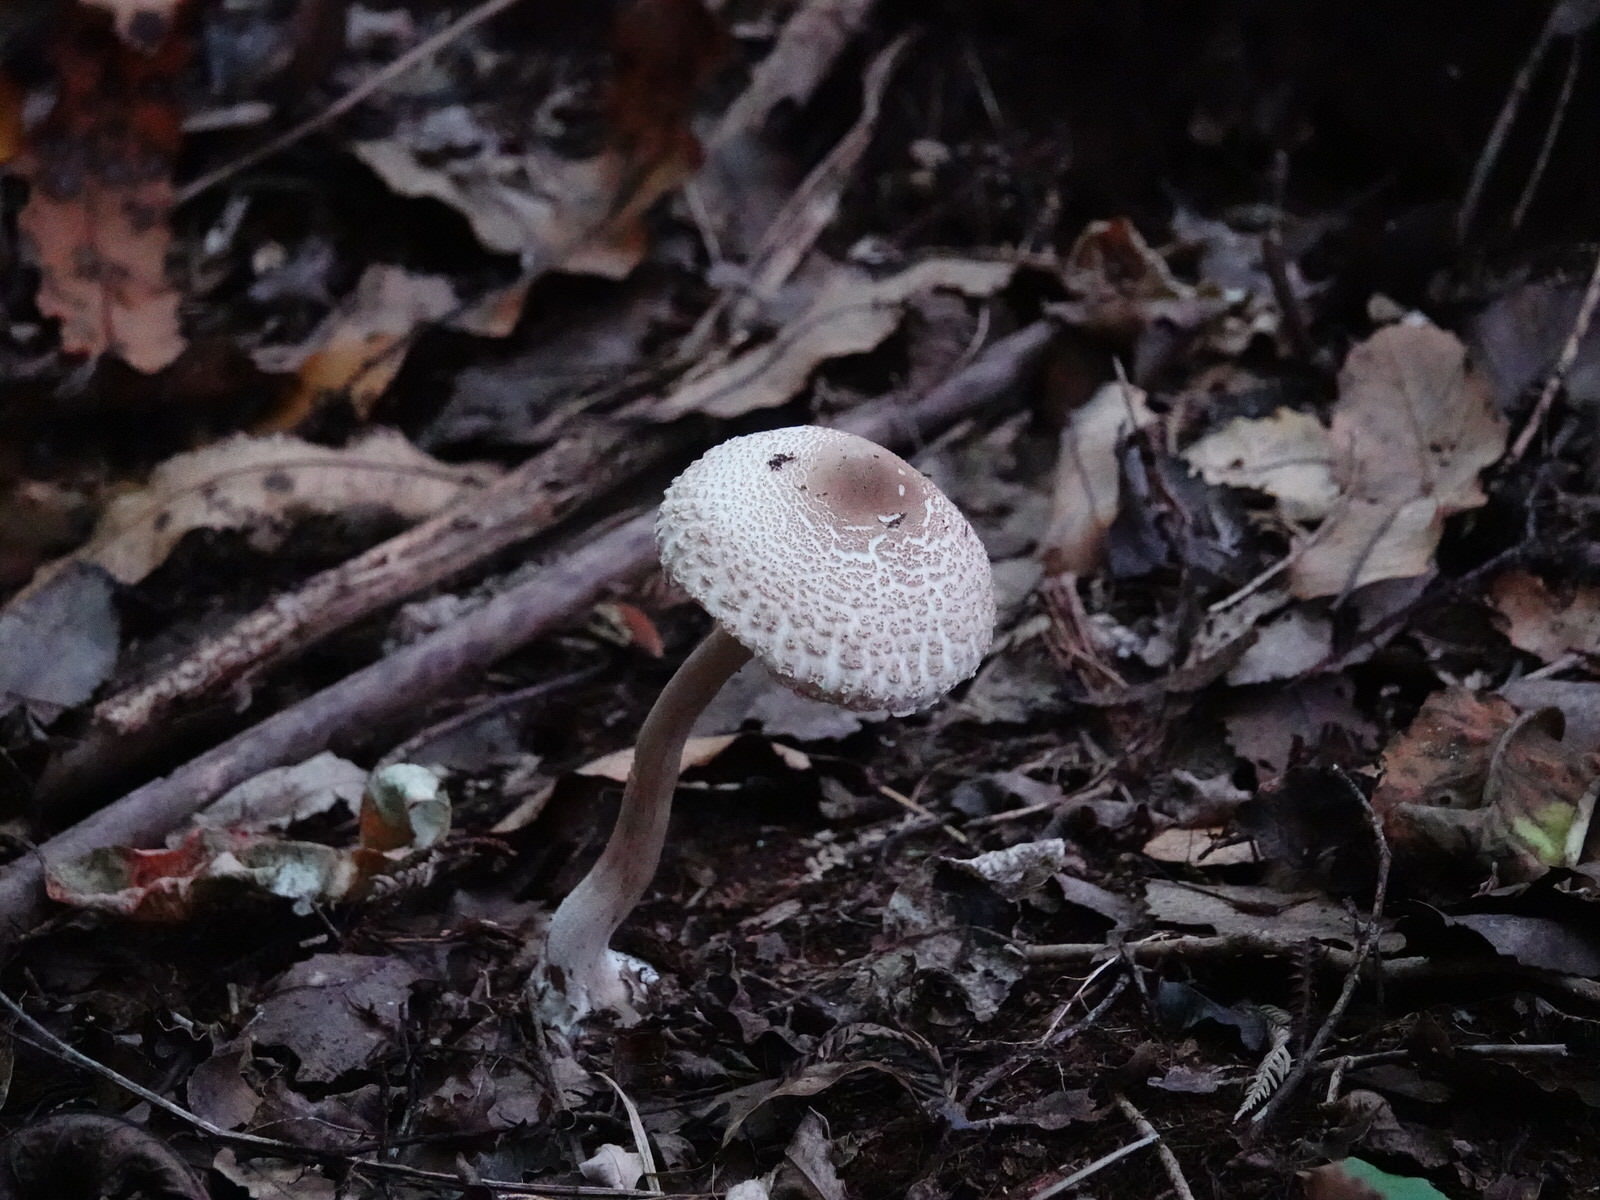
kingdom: Fungi
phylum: Basidiomycota
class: Agaricomycetes
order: Agaricales
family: Agaricaceae
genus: Macrolepiota
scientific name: Macrolepiota clelandii
